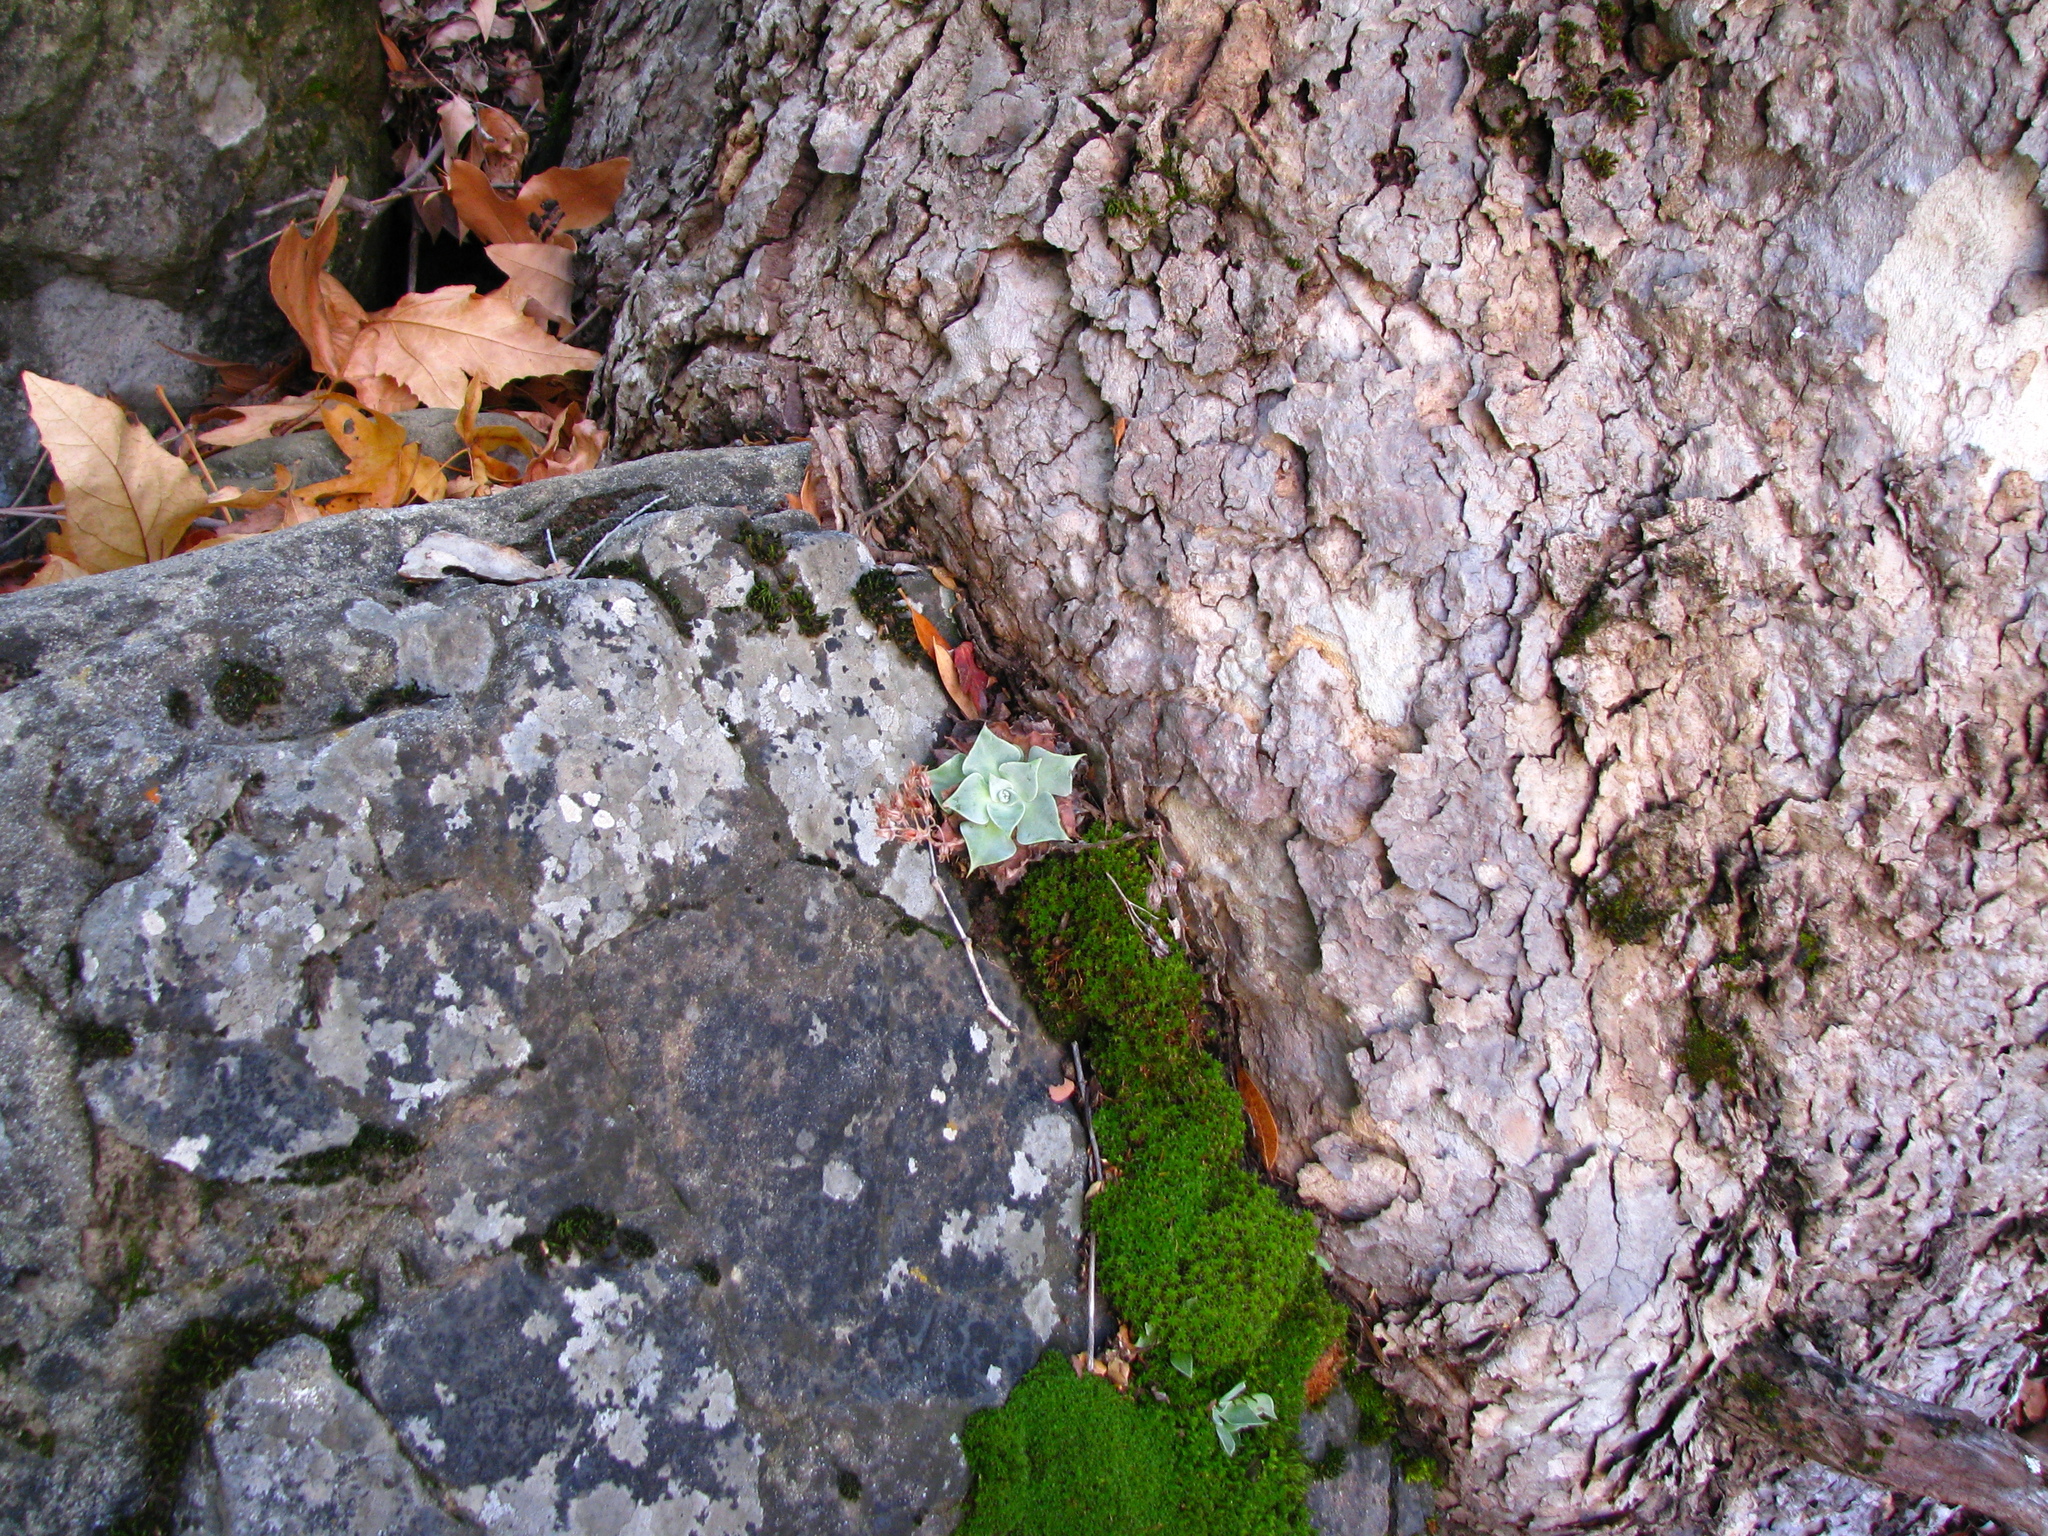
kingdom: Plantae
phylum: Tracheophyta
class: Magnoliopsida
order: Saxifragales
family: Crassulaceae
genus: Dudleya
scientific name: Dudleya cymosa
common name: Canyon dudleya
